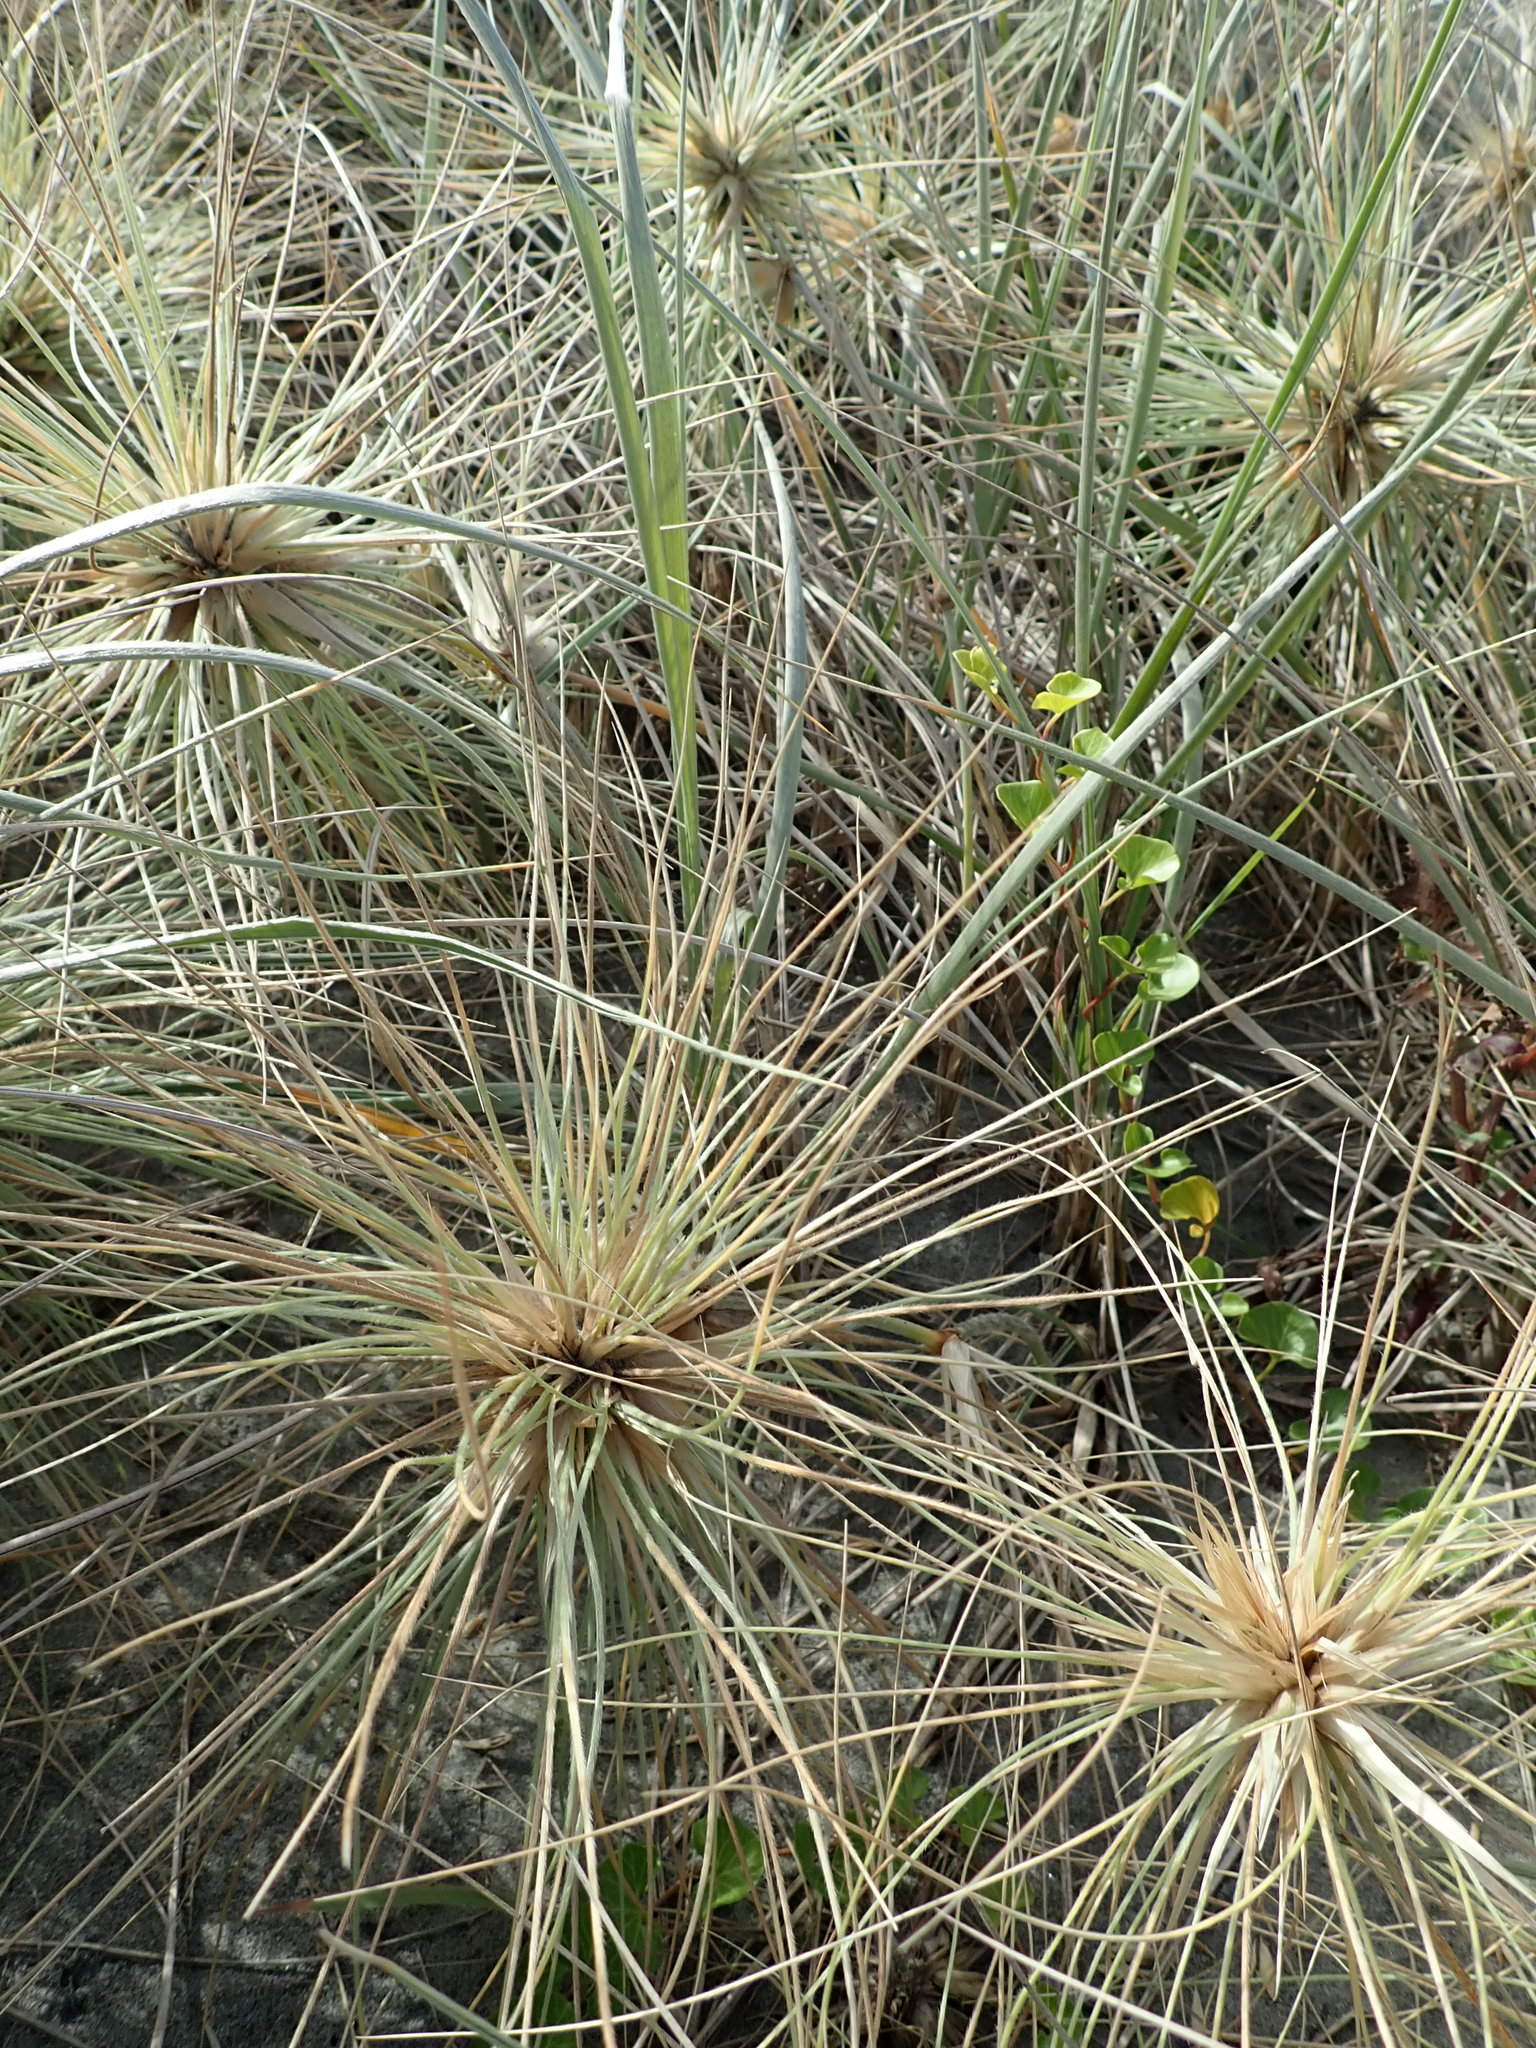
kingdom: Plantae
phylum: Tracheophyta
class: Magnoliopsida
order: Solanales
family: Convolvulaceae
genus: Calystegia
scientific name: Calystegia soldanella
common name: Sea bindweed
